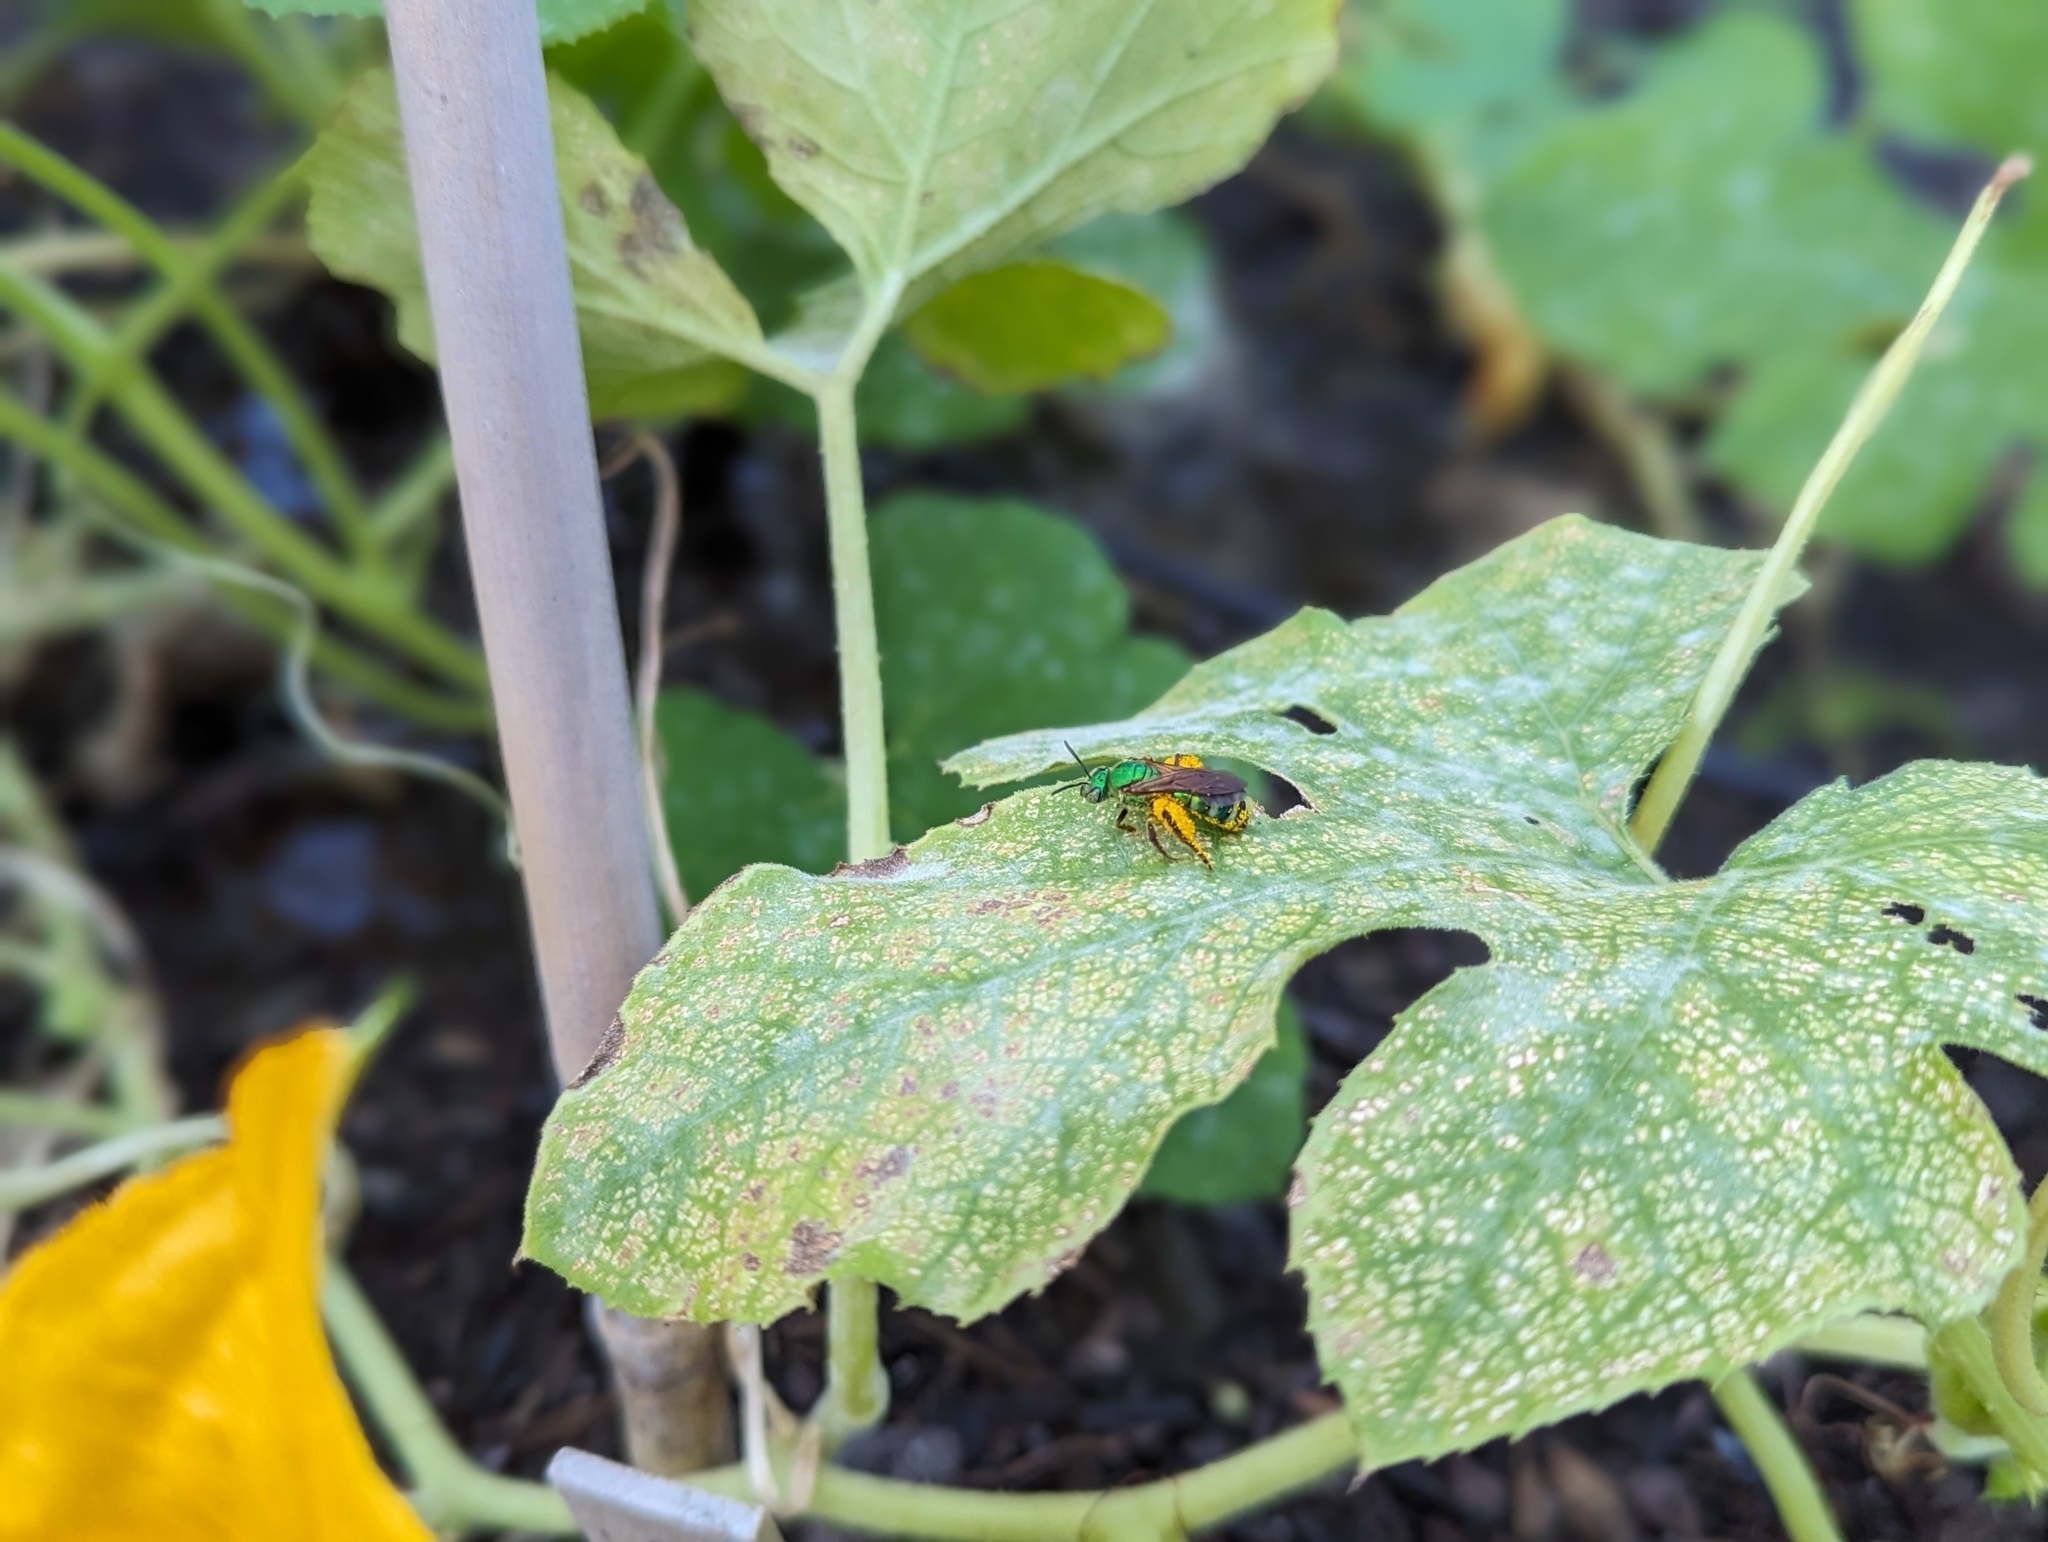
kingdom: Animalia
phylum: Arthropoda
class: Insecta
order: Hymenoptera
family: Halictidae
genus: Agapostemon
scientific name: Agapostemon splendens
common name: Brown-winged striped sweat bee
